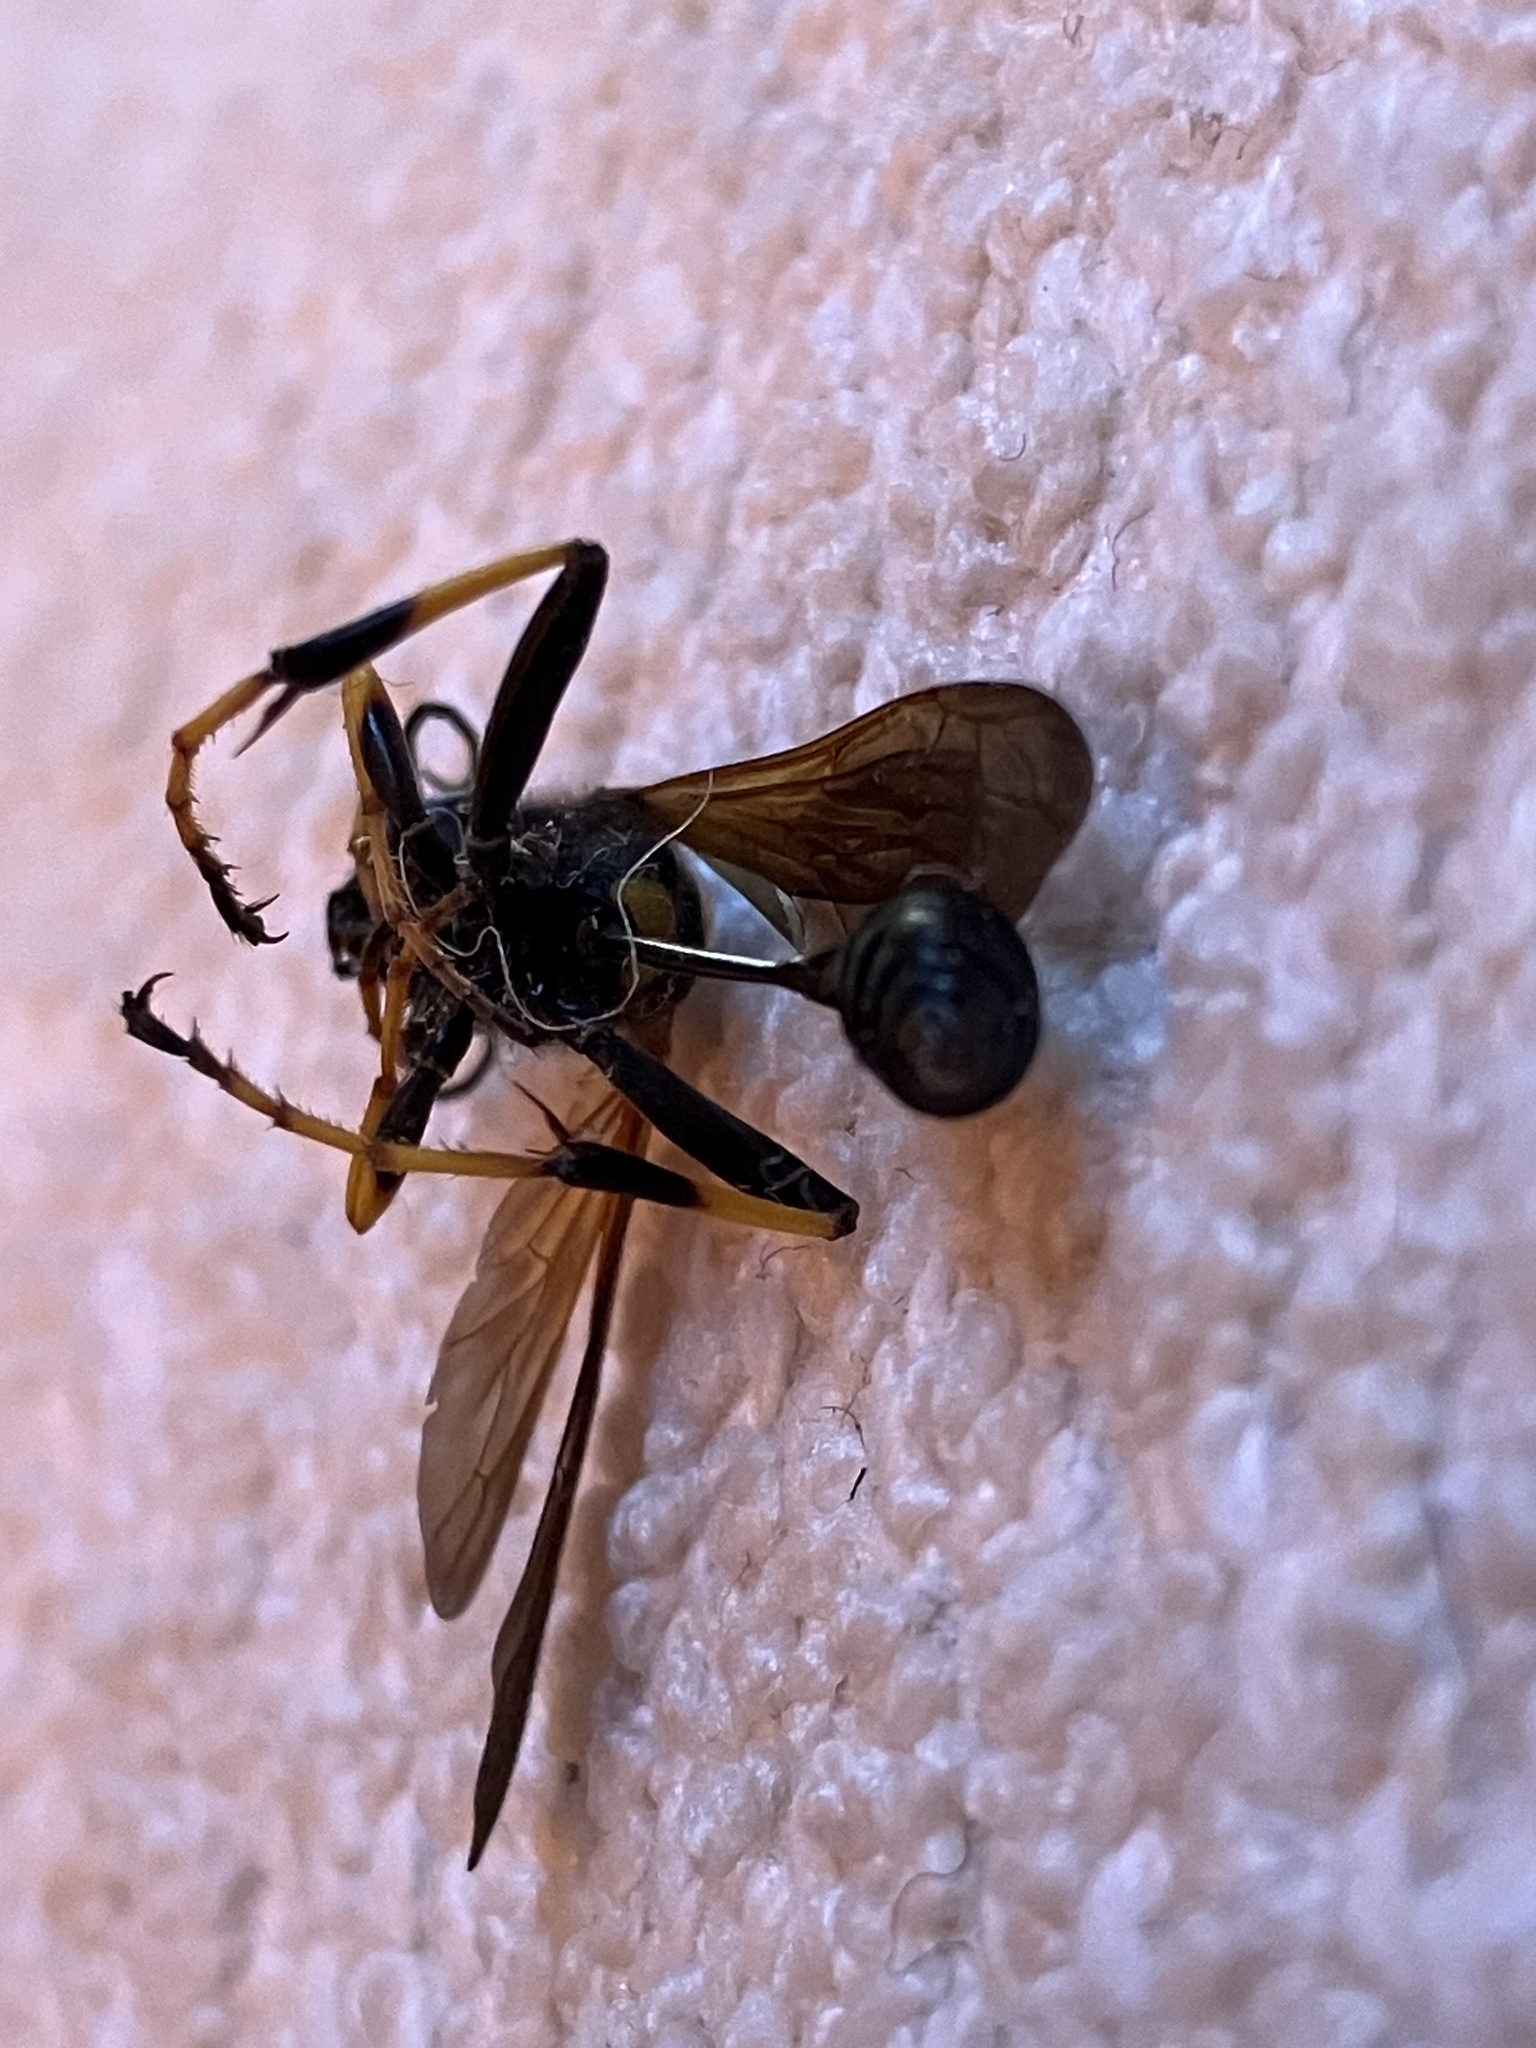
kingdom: Animalia
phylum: Arthropoda
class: Insecta
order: Hymenoptera
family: Sphecidae
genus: Sceliphron
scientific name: Sceliphron caementarium
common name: Mud dauber
